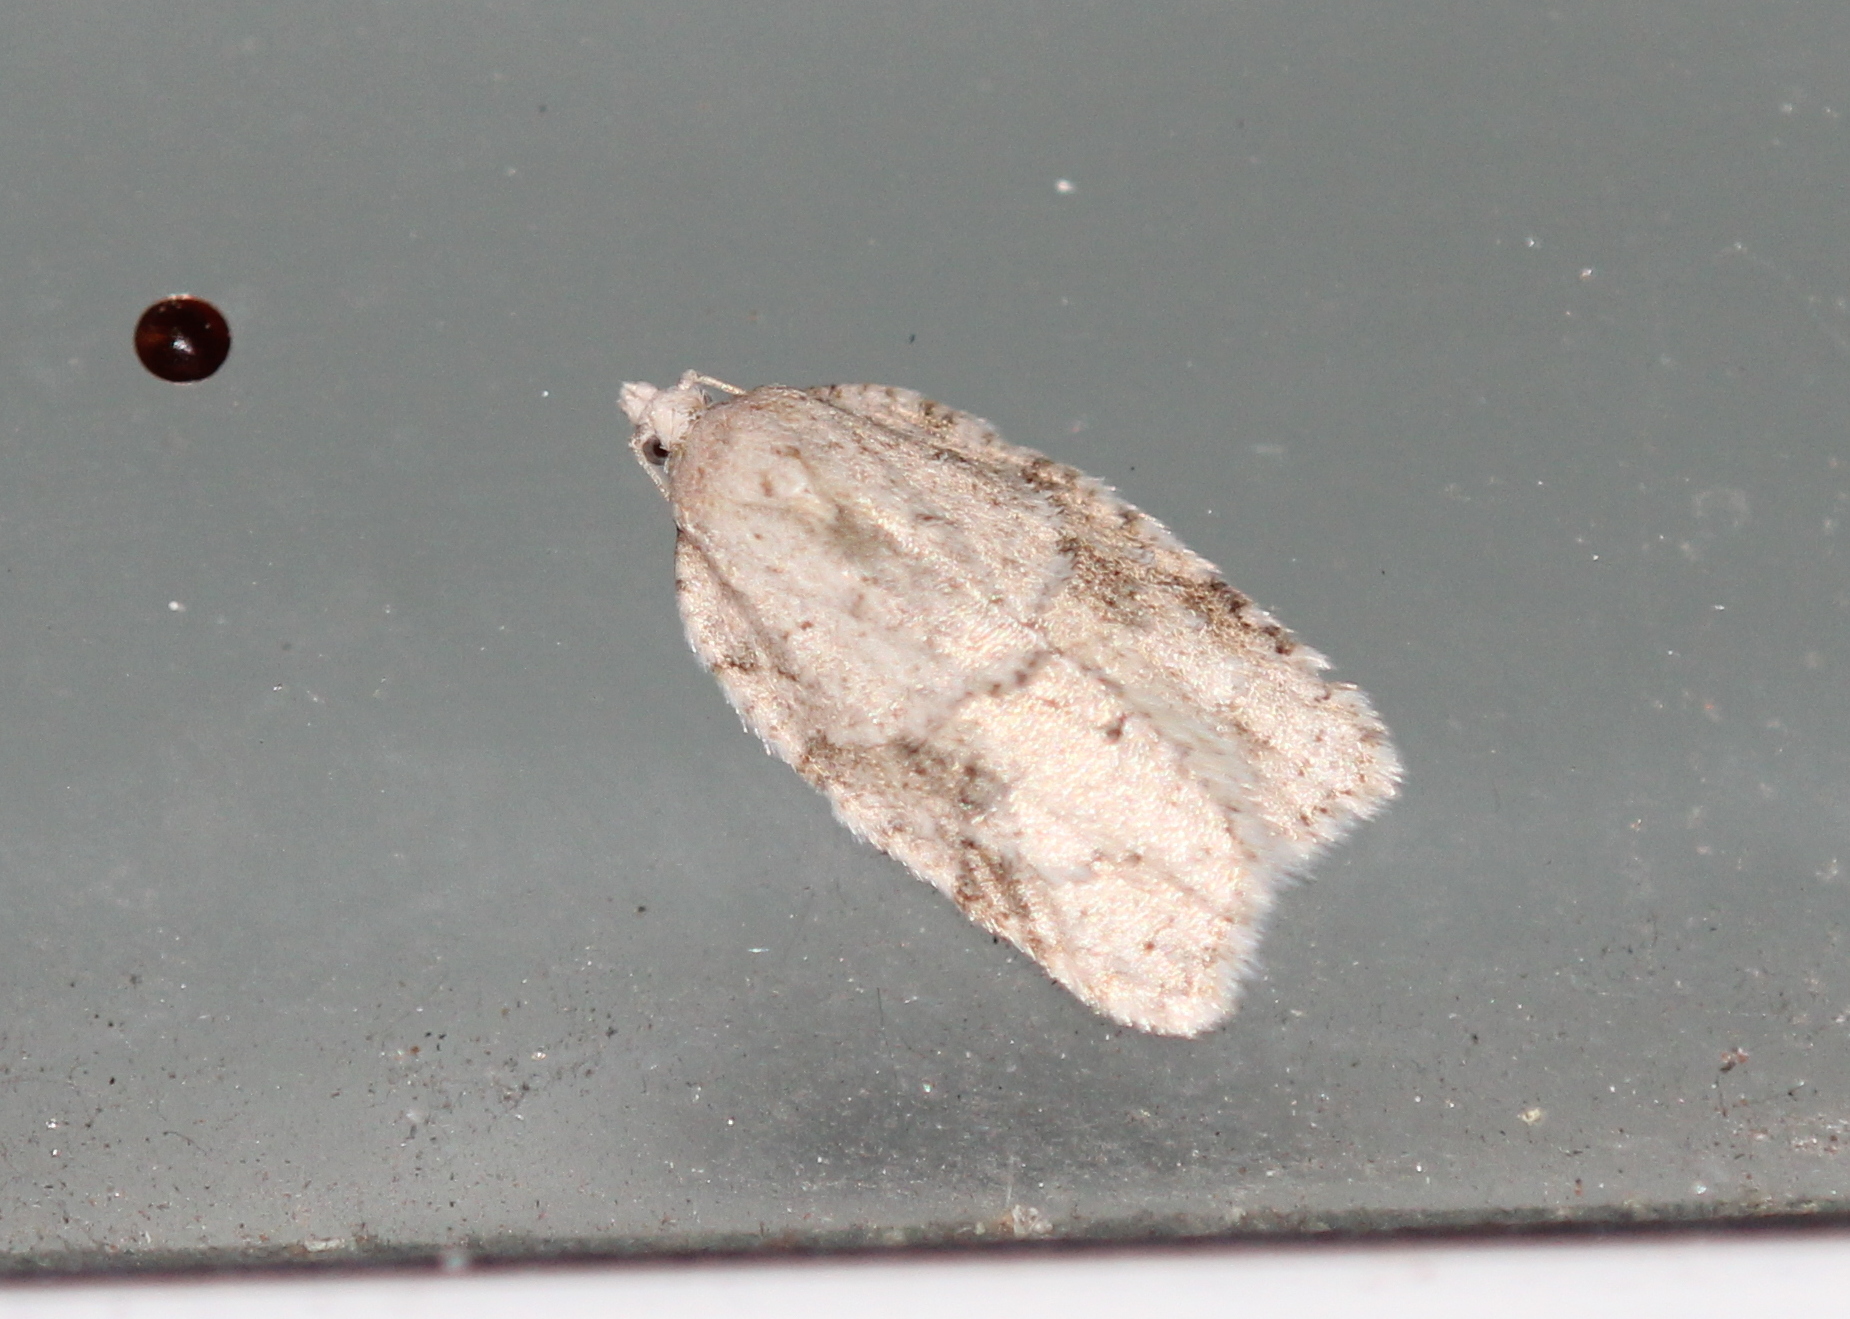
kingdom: Animalia
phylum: Arthropoda
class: Insecta
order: Lepidoptera
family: Tortricidae
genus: Acleris
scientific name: Acleris placidana
